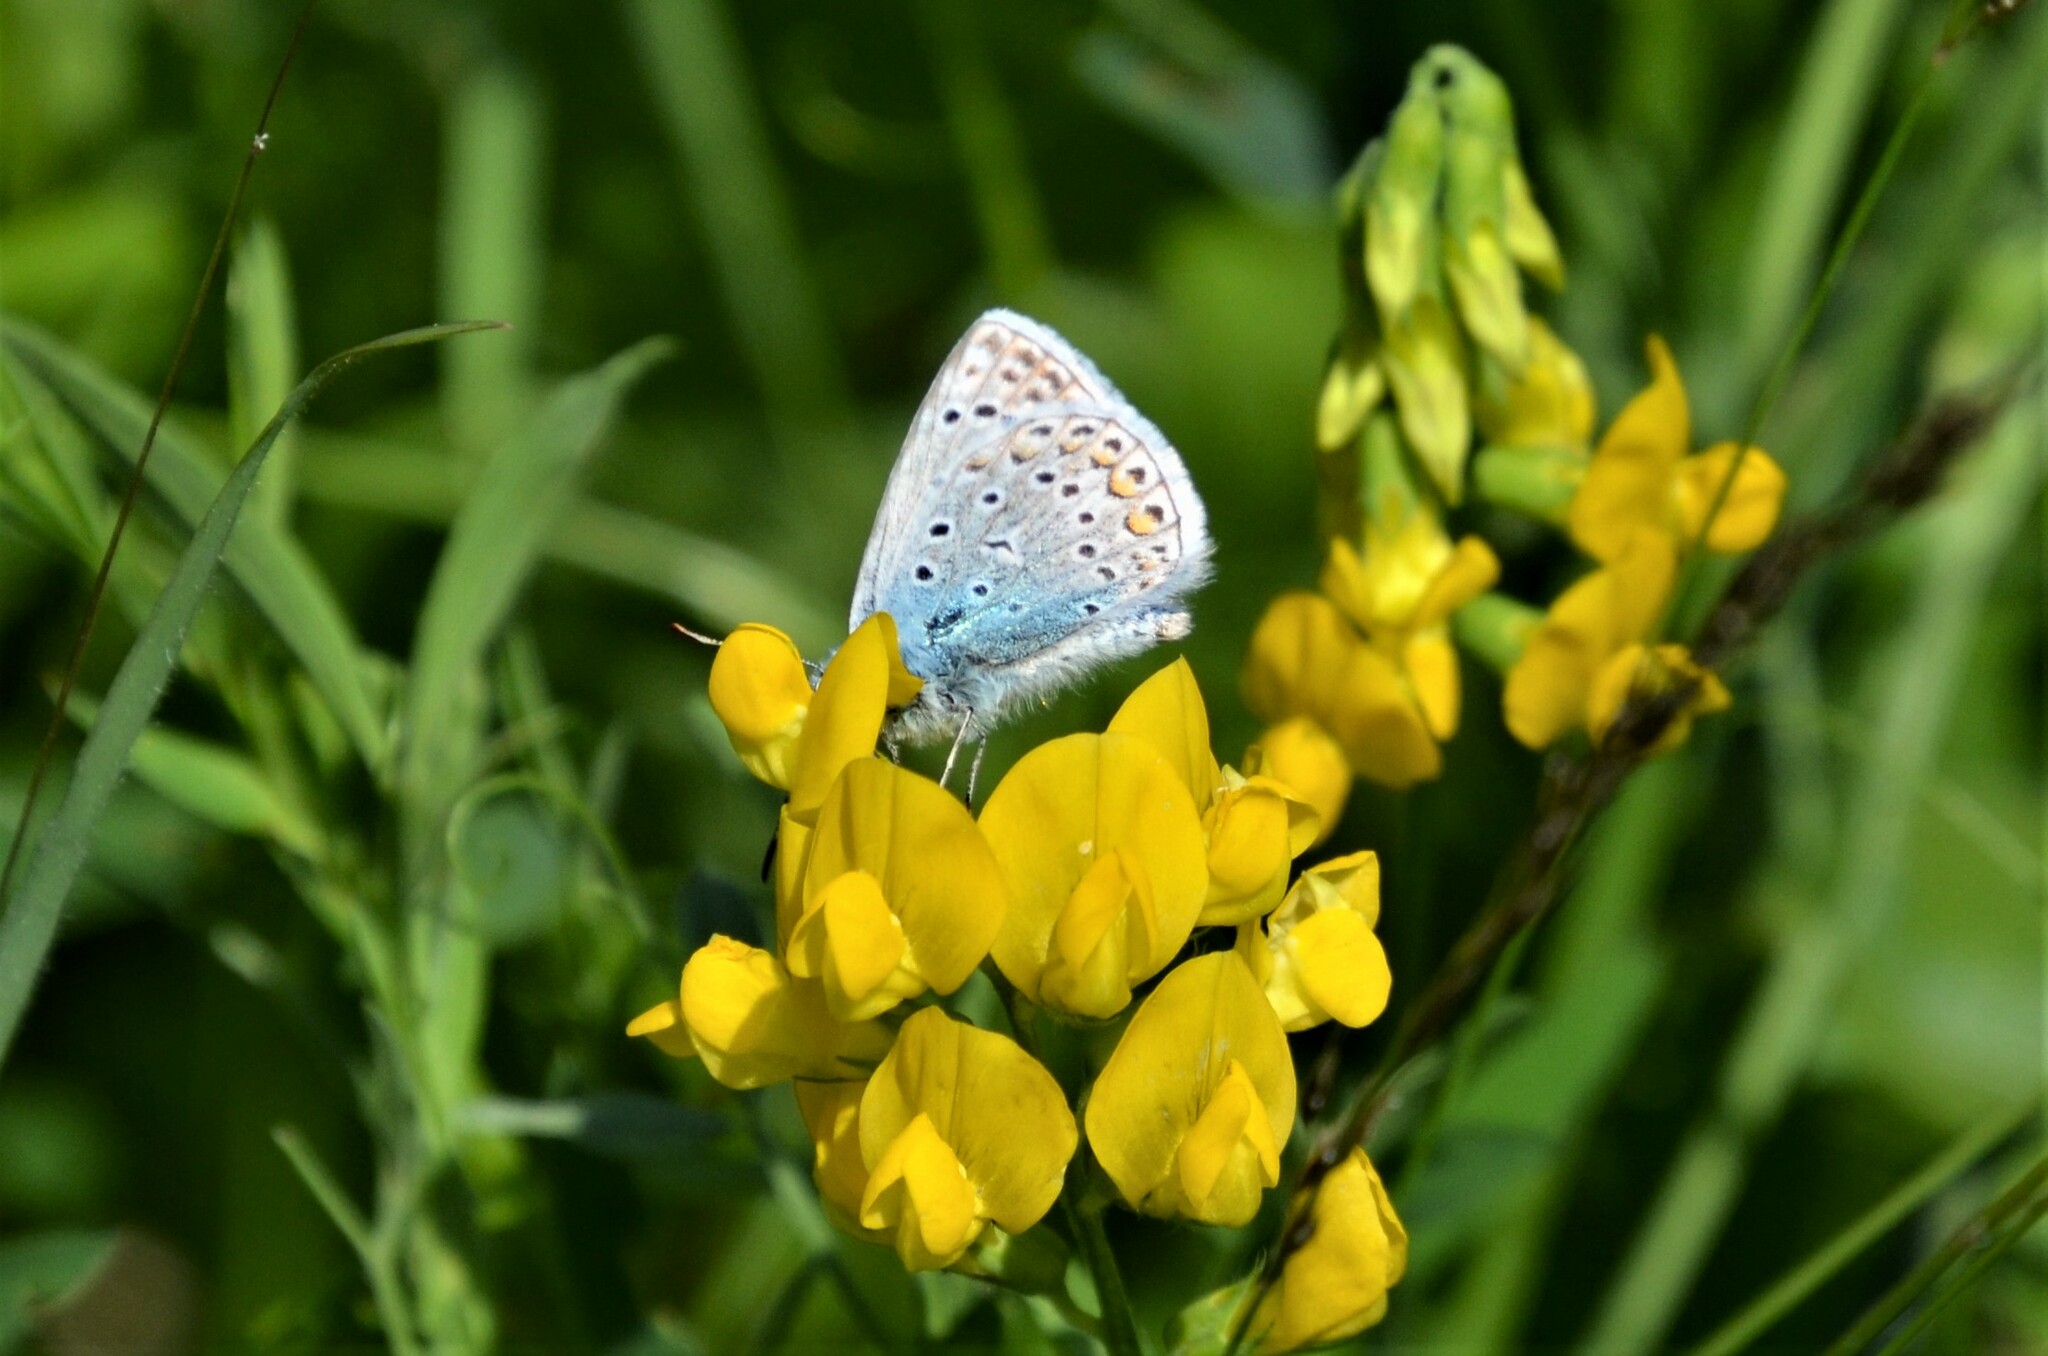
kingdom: Animalia
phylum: Arthropoda
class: Insecta
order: Lepidoptera
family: Lycaenidae
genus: Polyommatus
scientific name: Polyommatus icarus
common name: Common blue
